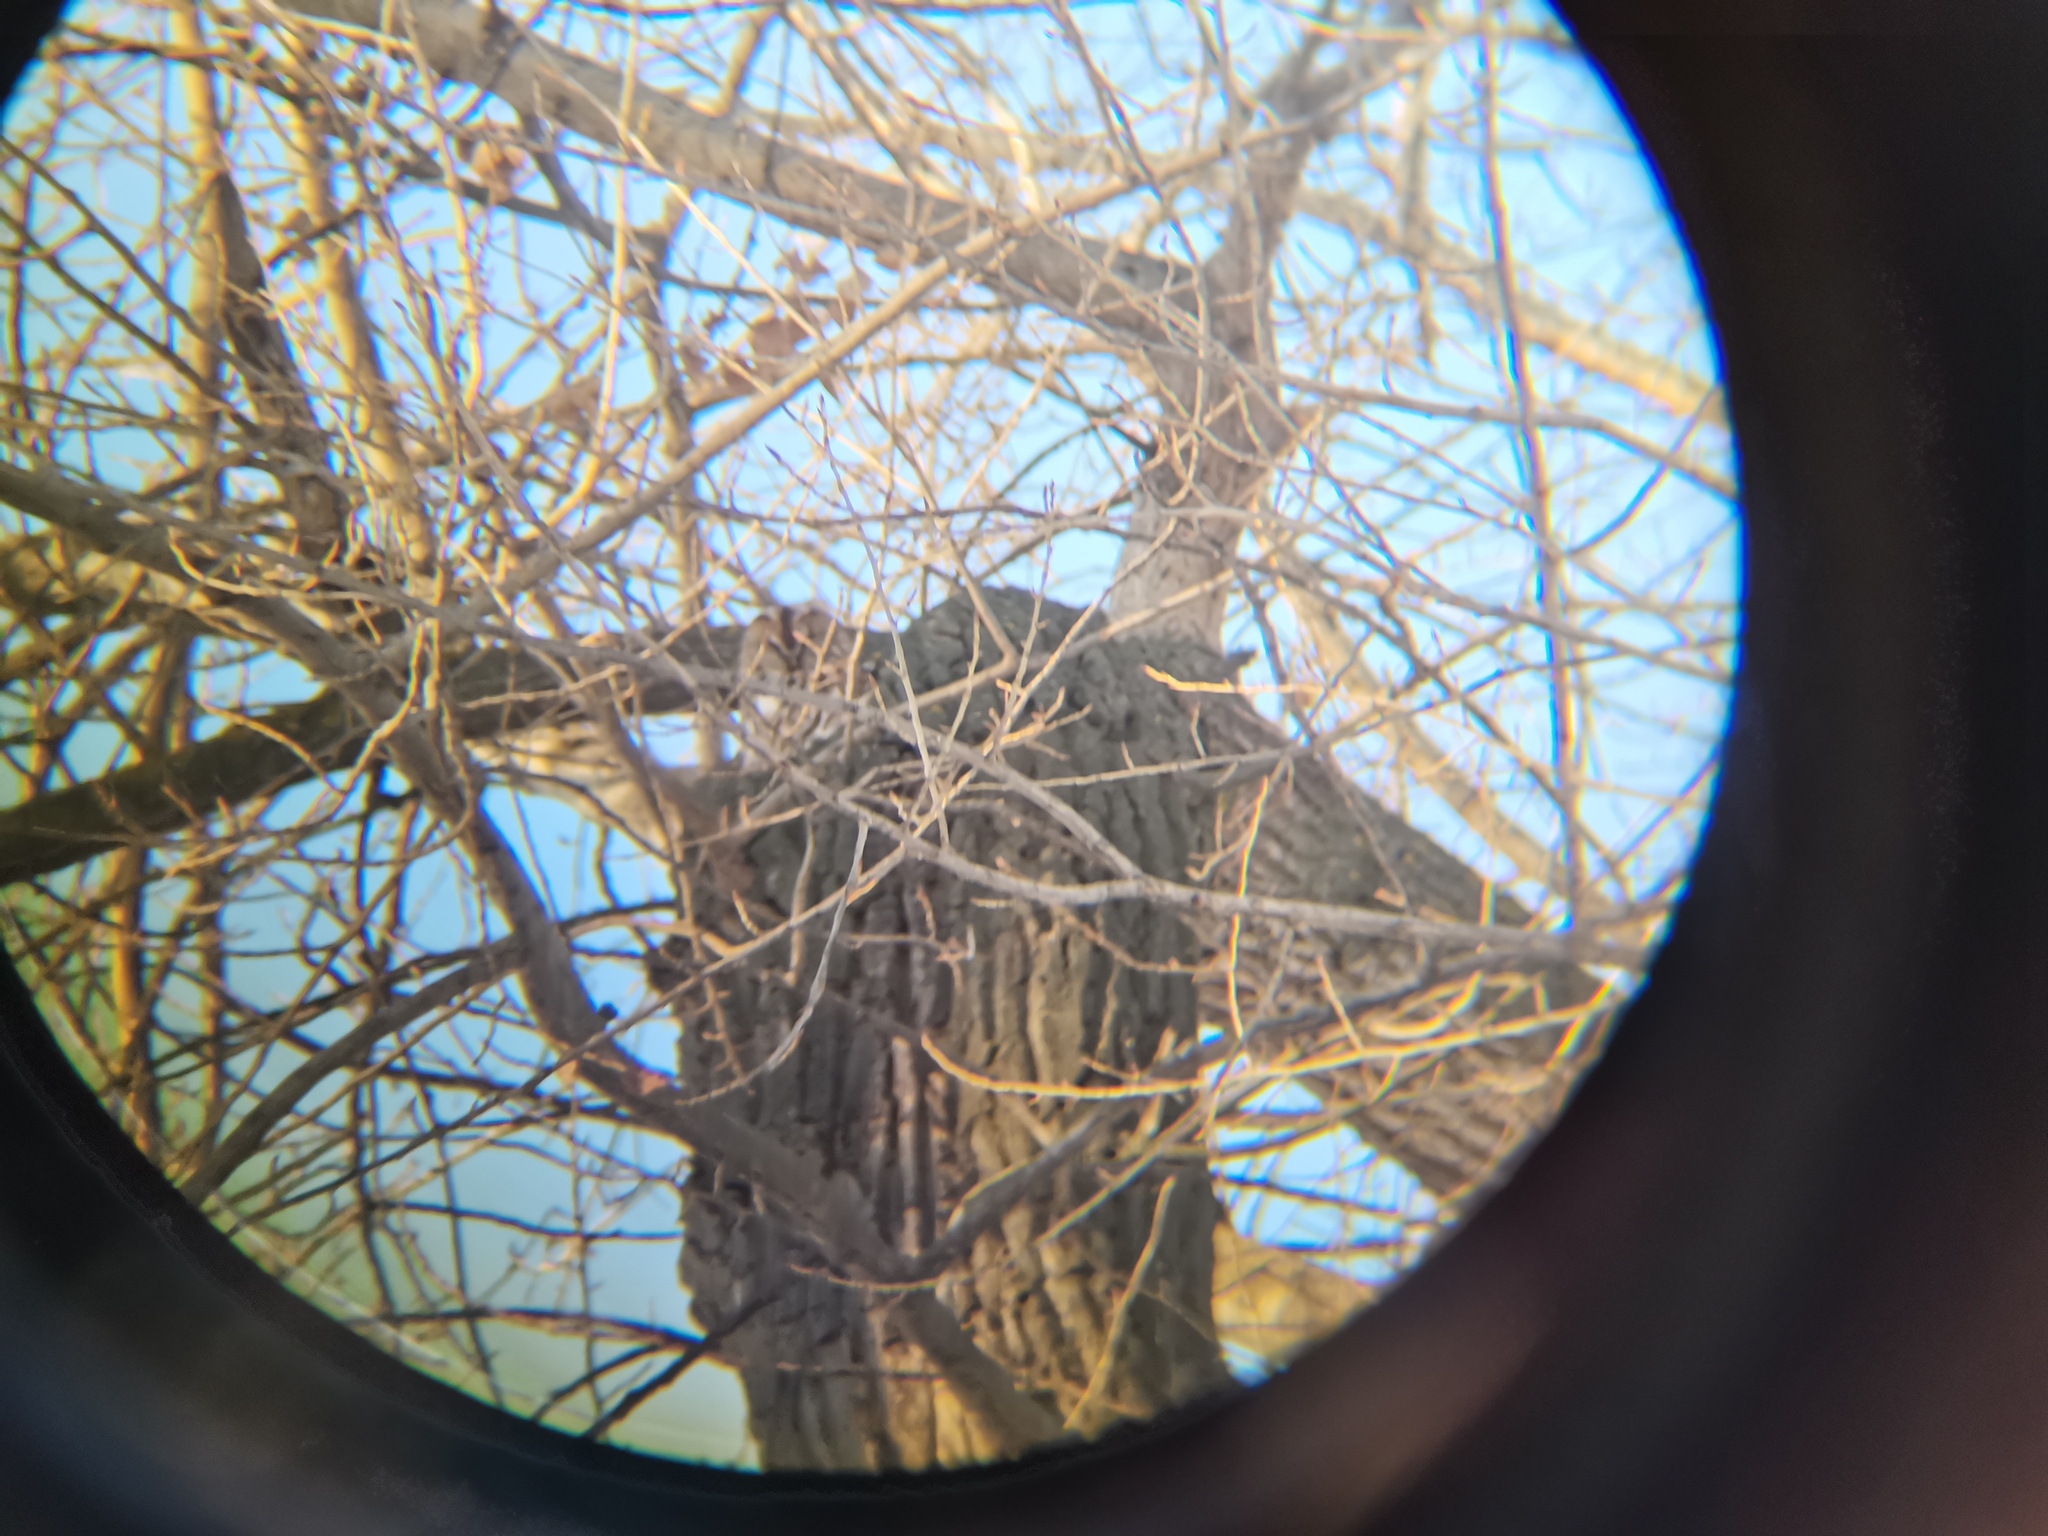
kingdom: Animalia
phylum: Chordata
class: Aves
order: Strigiformes
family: Strigidae
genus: Strix
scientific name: Strix aluco
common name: Tawny owl
